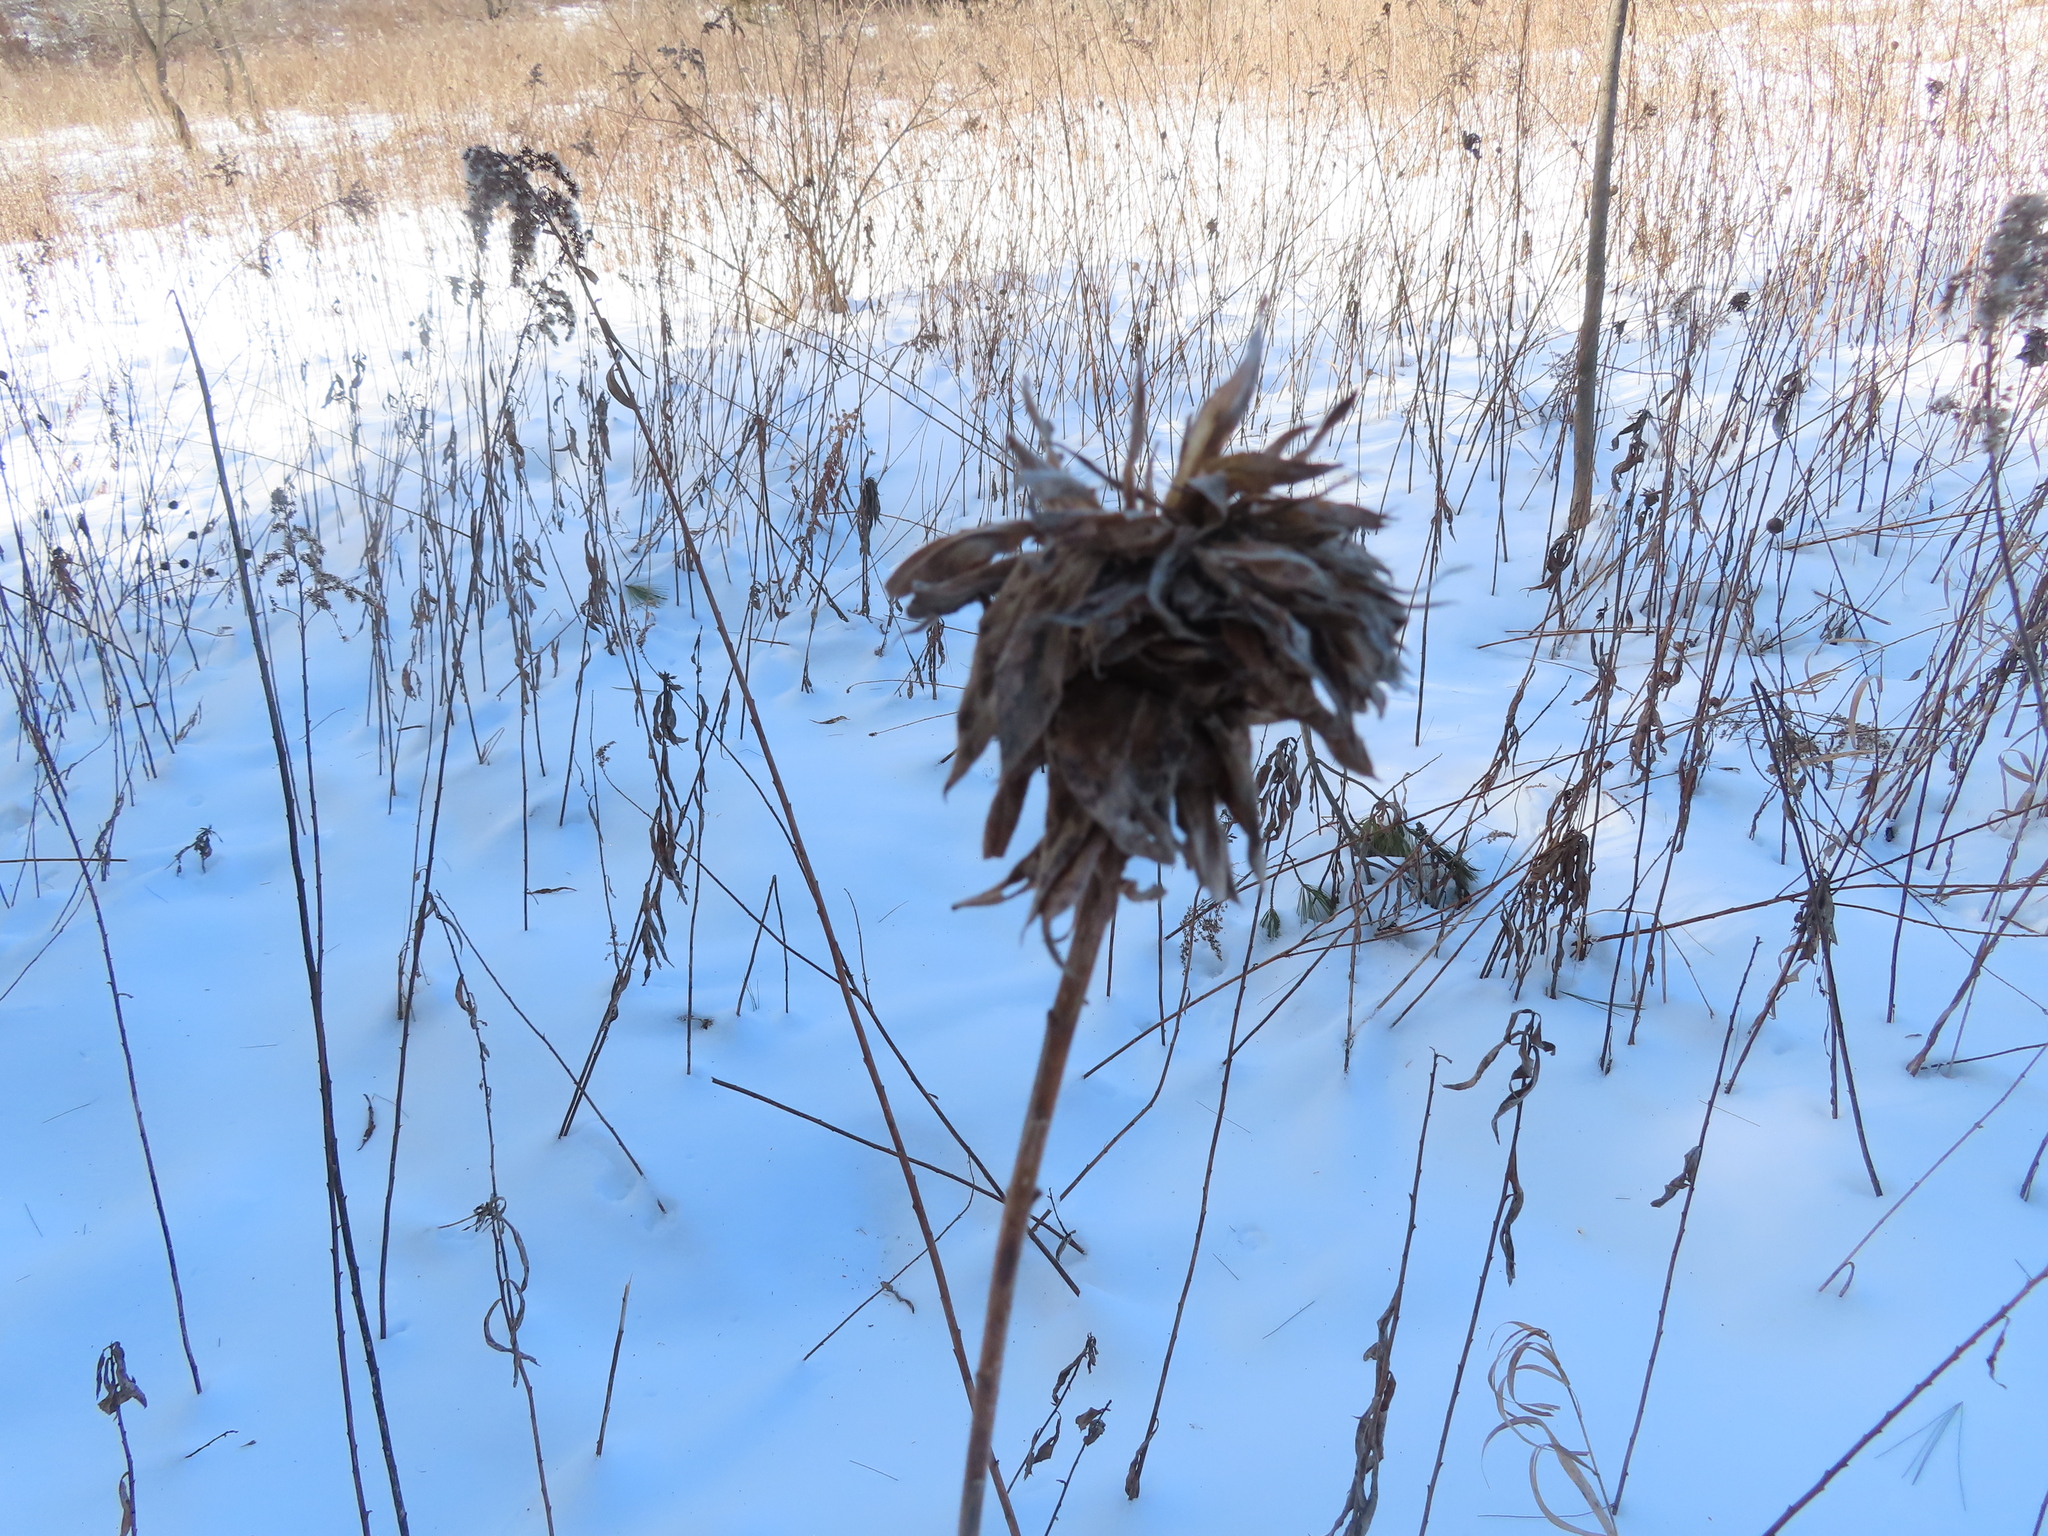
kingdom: Animalia
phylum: Arthropoda
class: Insecta
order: Diptera
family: Cecidomyiidae
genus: Rhopalomyia
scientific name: Rhopalomyia solidaginis
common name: Goldenrod bunch gall midge
